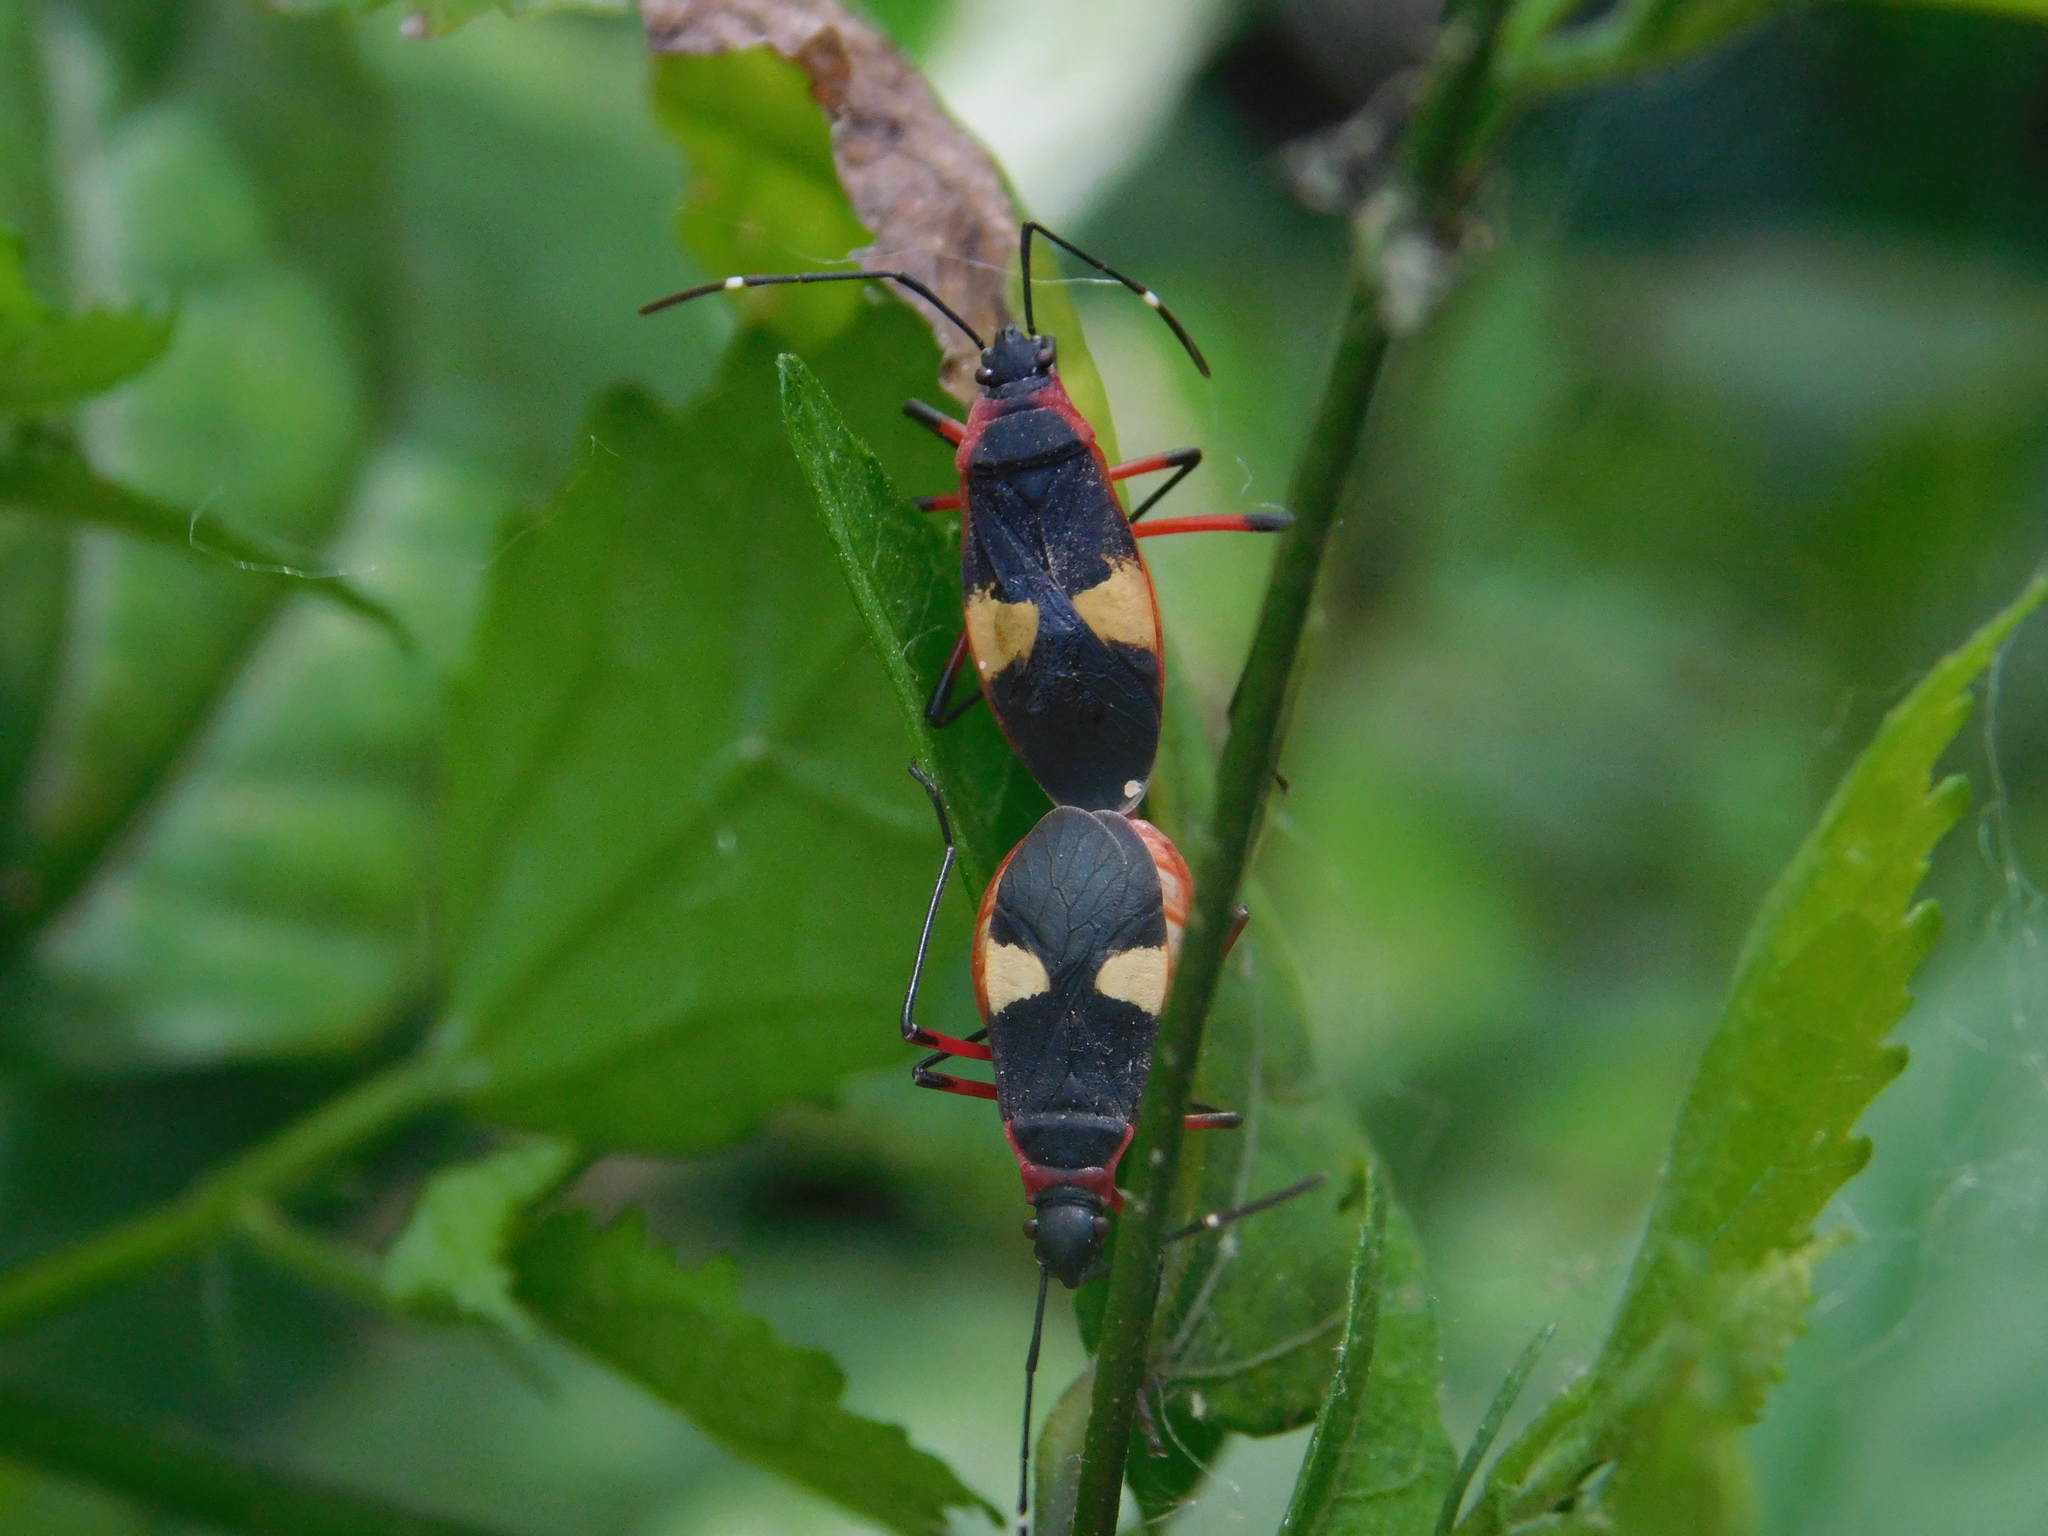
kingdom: Animalia
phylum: Arthropoda
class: Insecta
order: Hemiptera
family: Pyrrhocoridae
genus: Dysdercus
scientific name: Dysdercus albofasciatus
